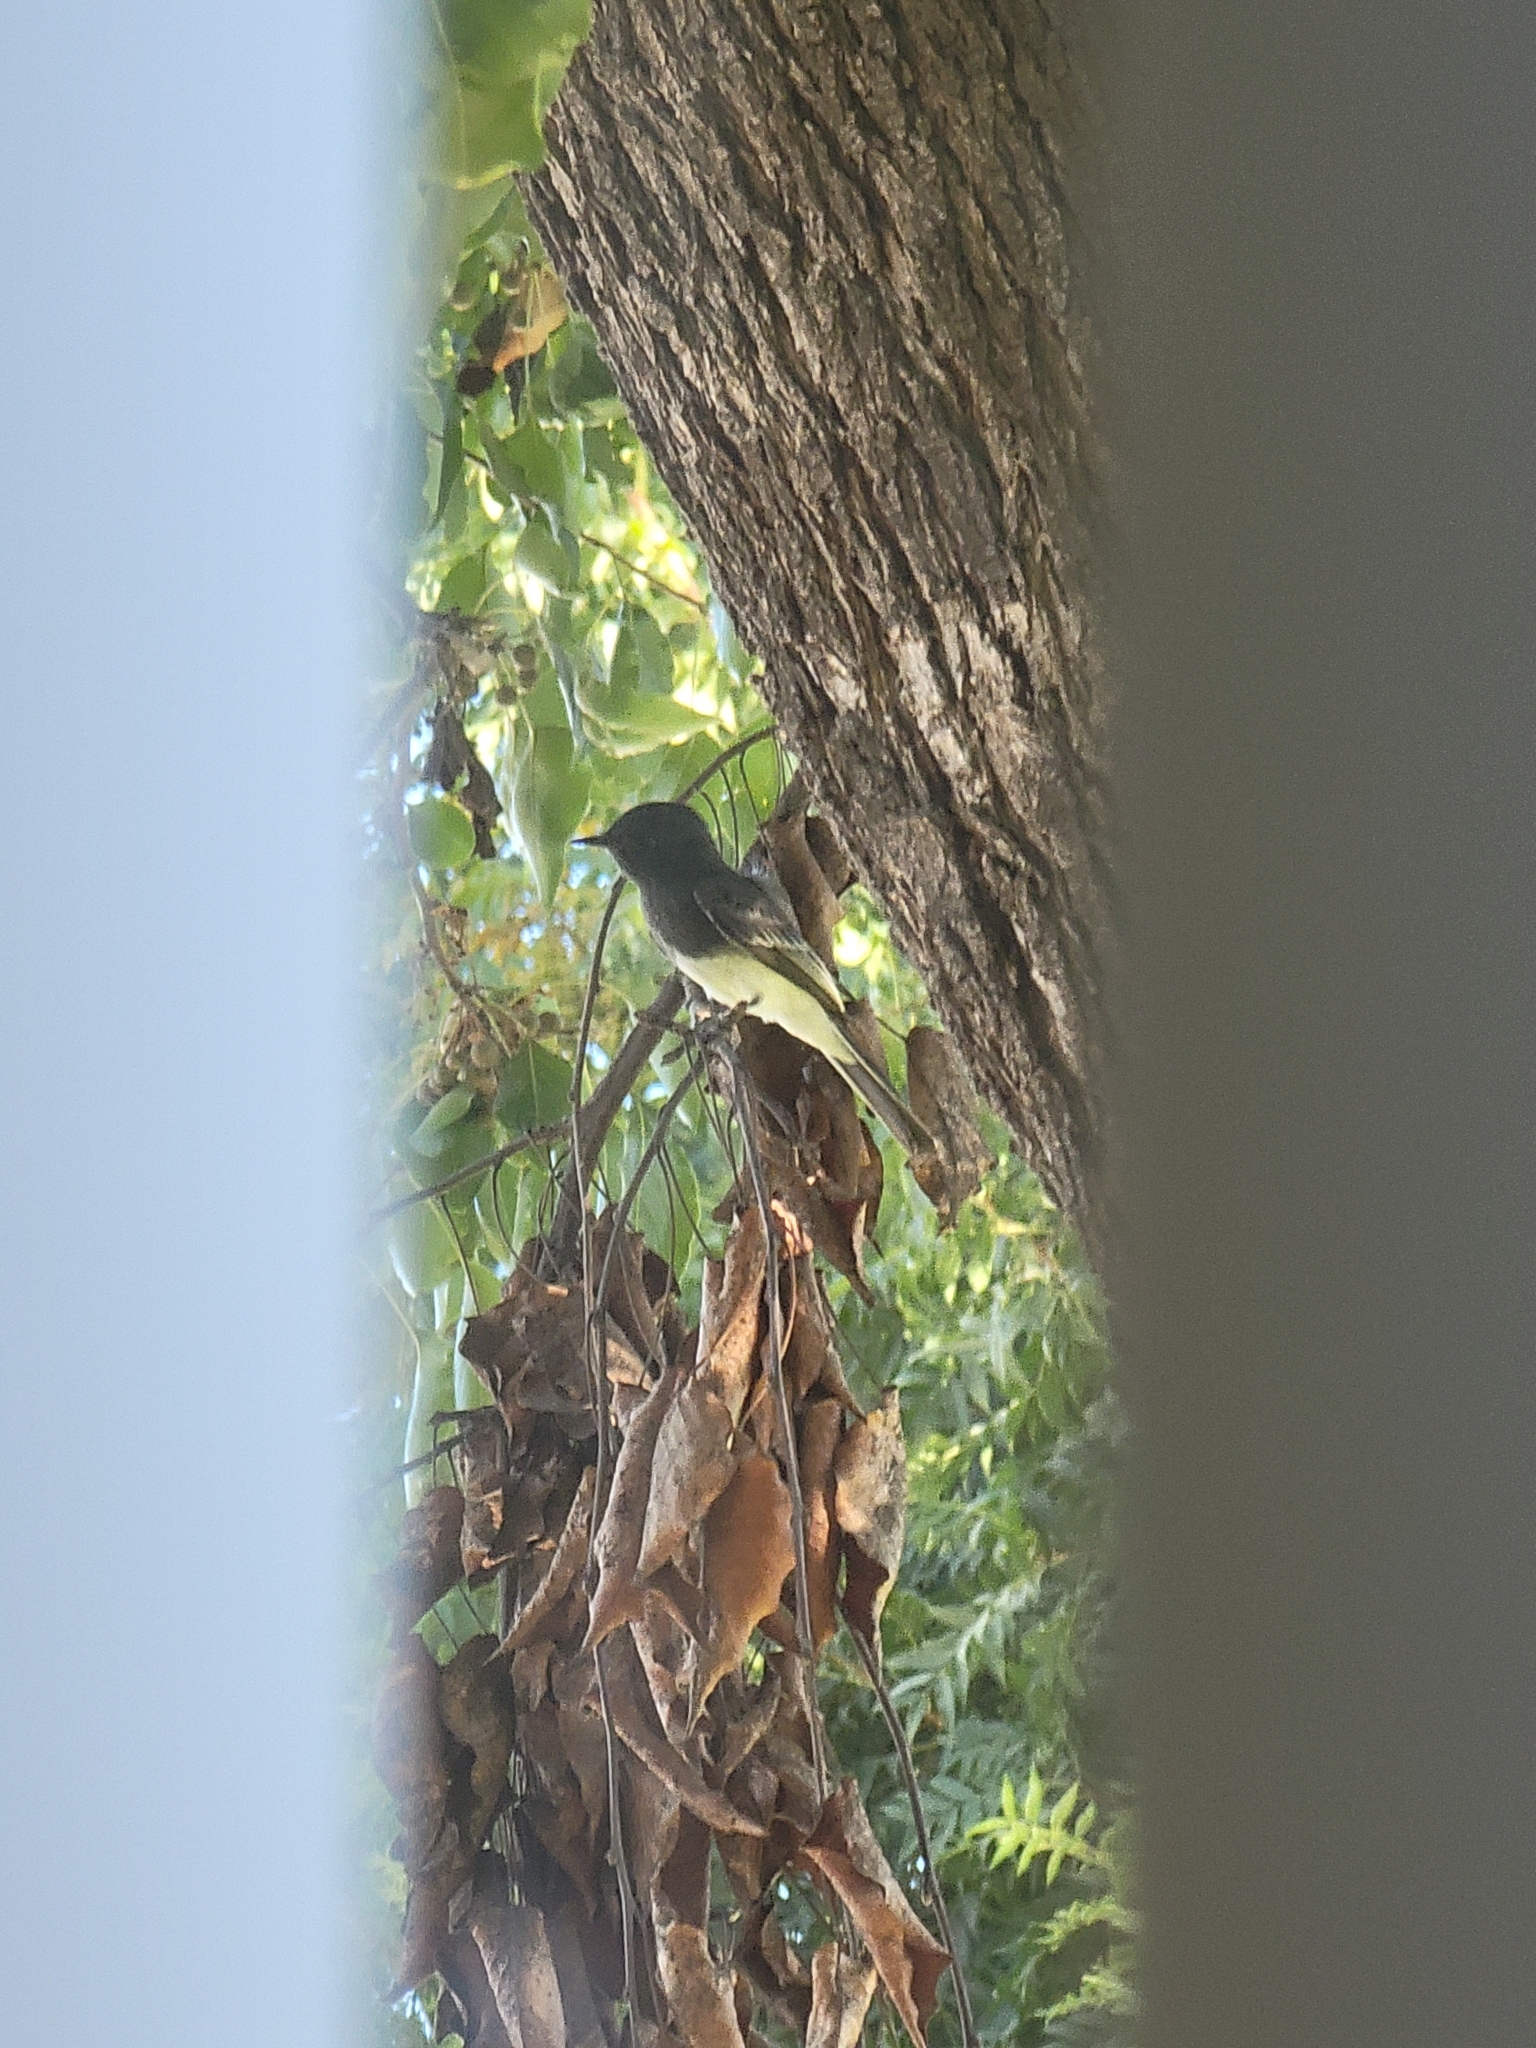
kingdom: Animalia
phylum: Chordata
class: Aves
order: Passeriformes
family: Tyrannidae
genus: Sayornis
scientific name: Sayornis nigricans
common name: Black phoebe
